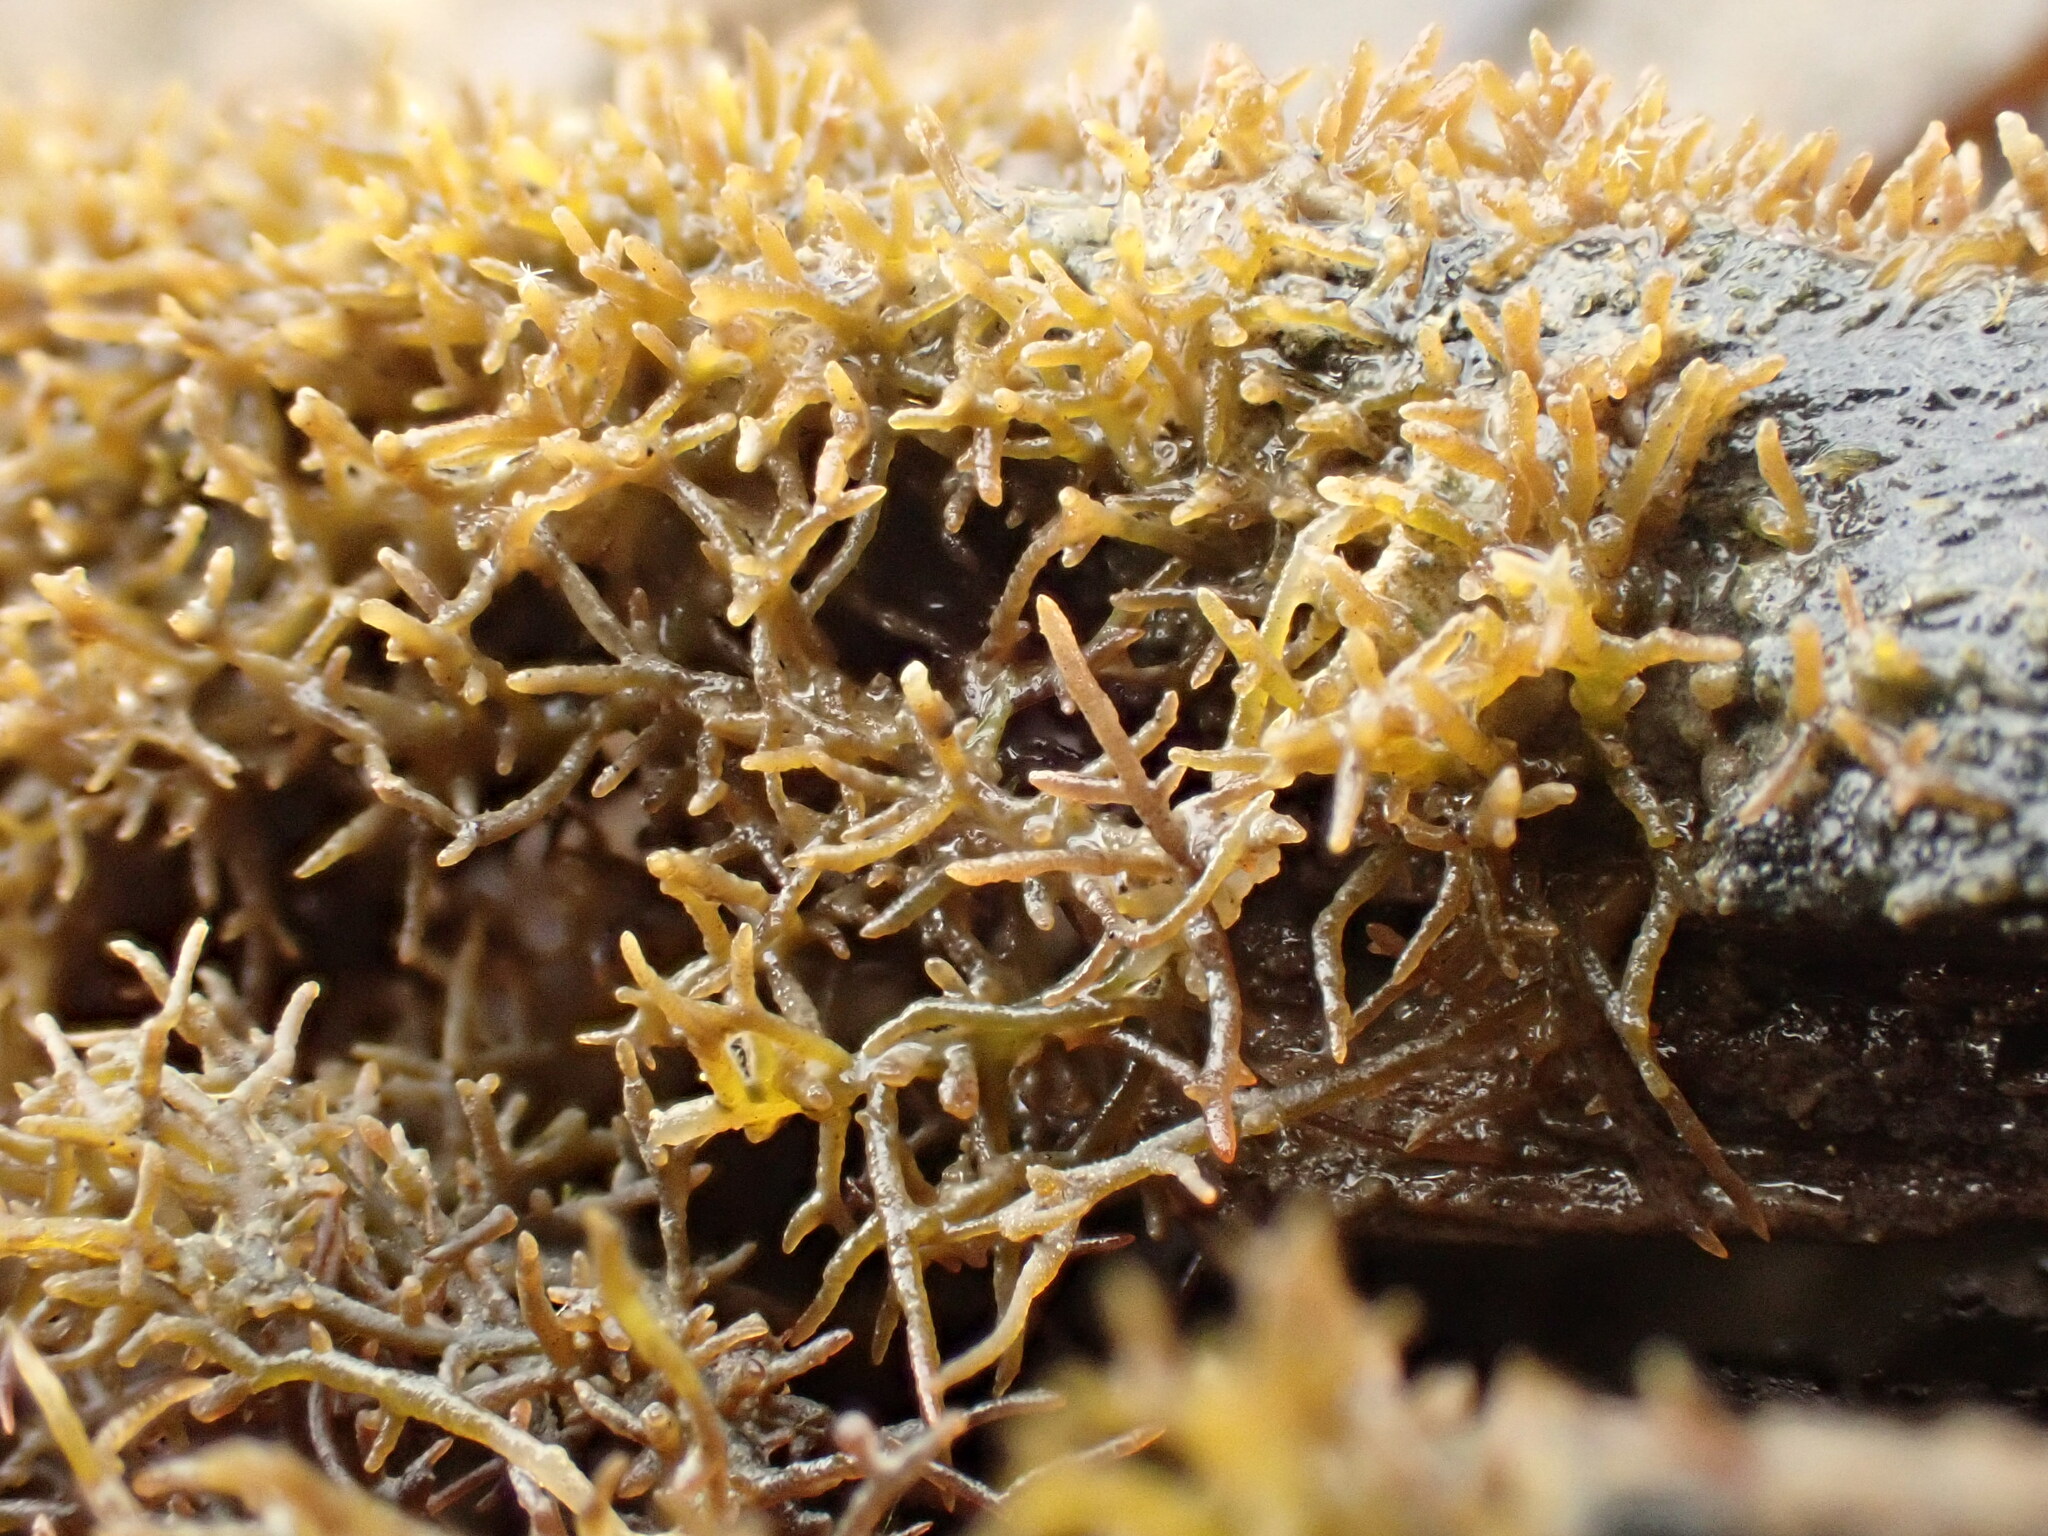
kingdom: Plantae
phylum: Rhodophyta
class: Florideophyceae
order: Gelidiales
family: Gelidiaceae
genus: Capreolia
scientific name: Capreolia implexa
